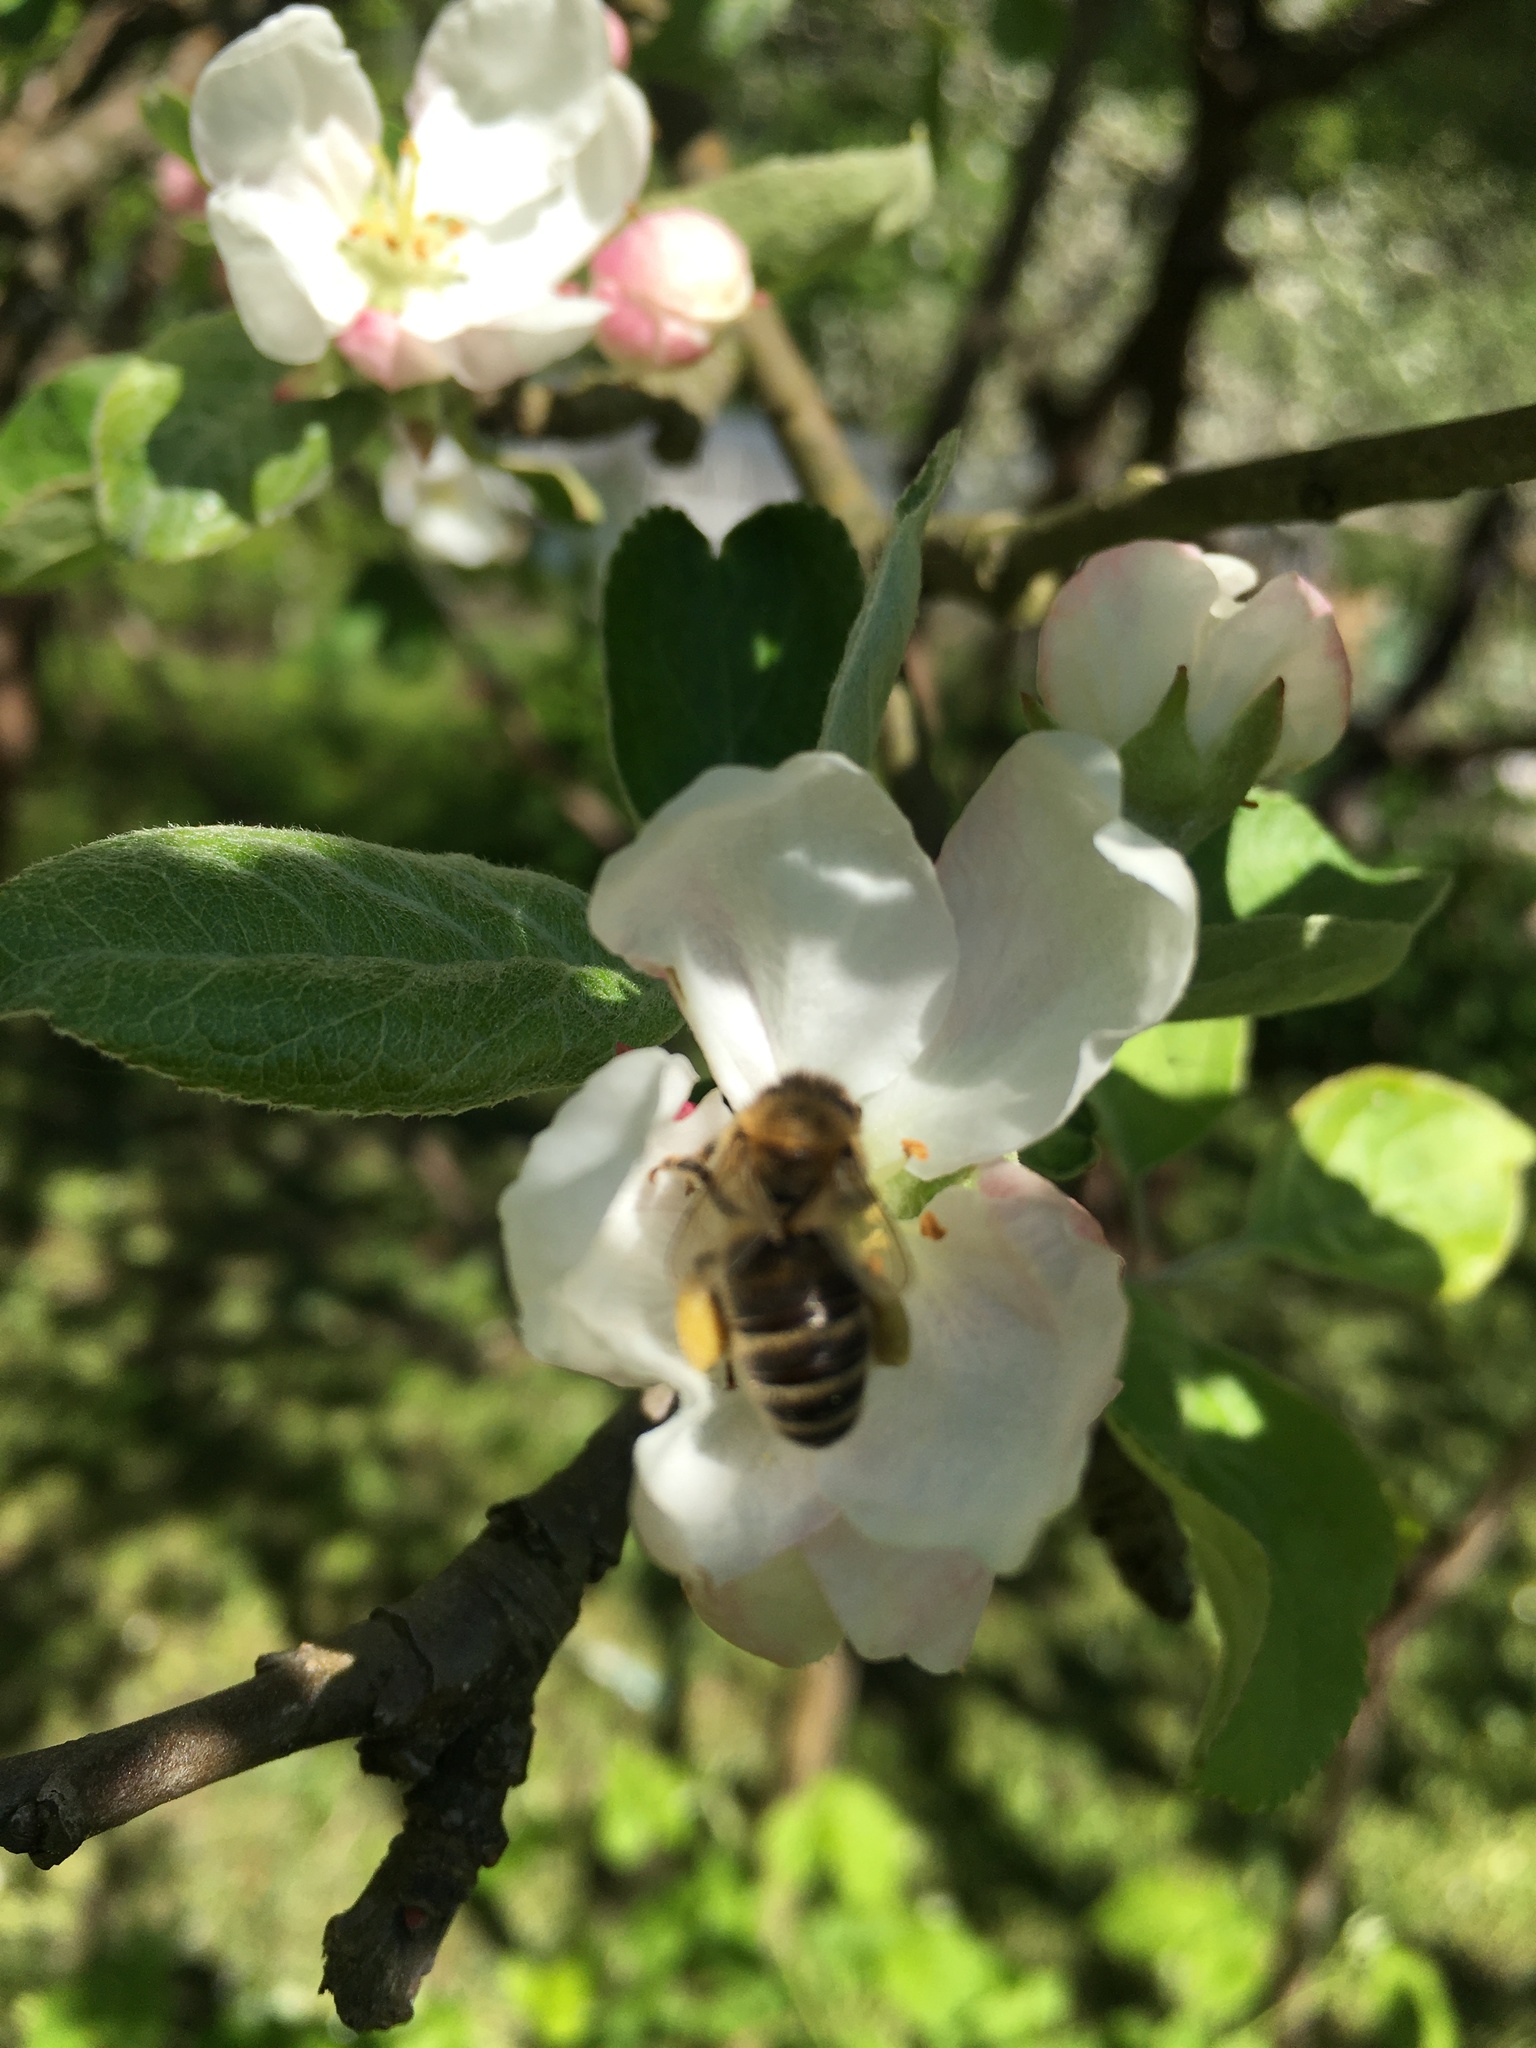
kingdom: Animalia
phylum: Arthropoda
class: Insecta
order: Hymenoptera
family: Apidae
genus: Apis
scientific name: Apis mellifera
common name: Honey bee
